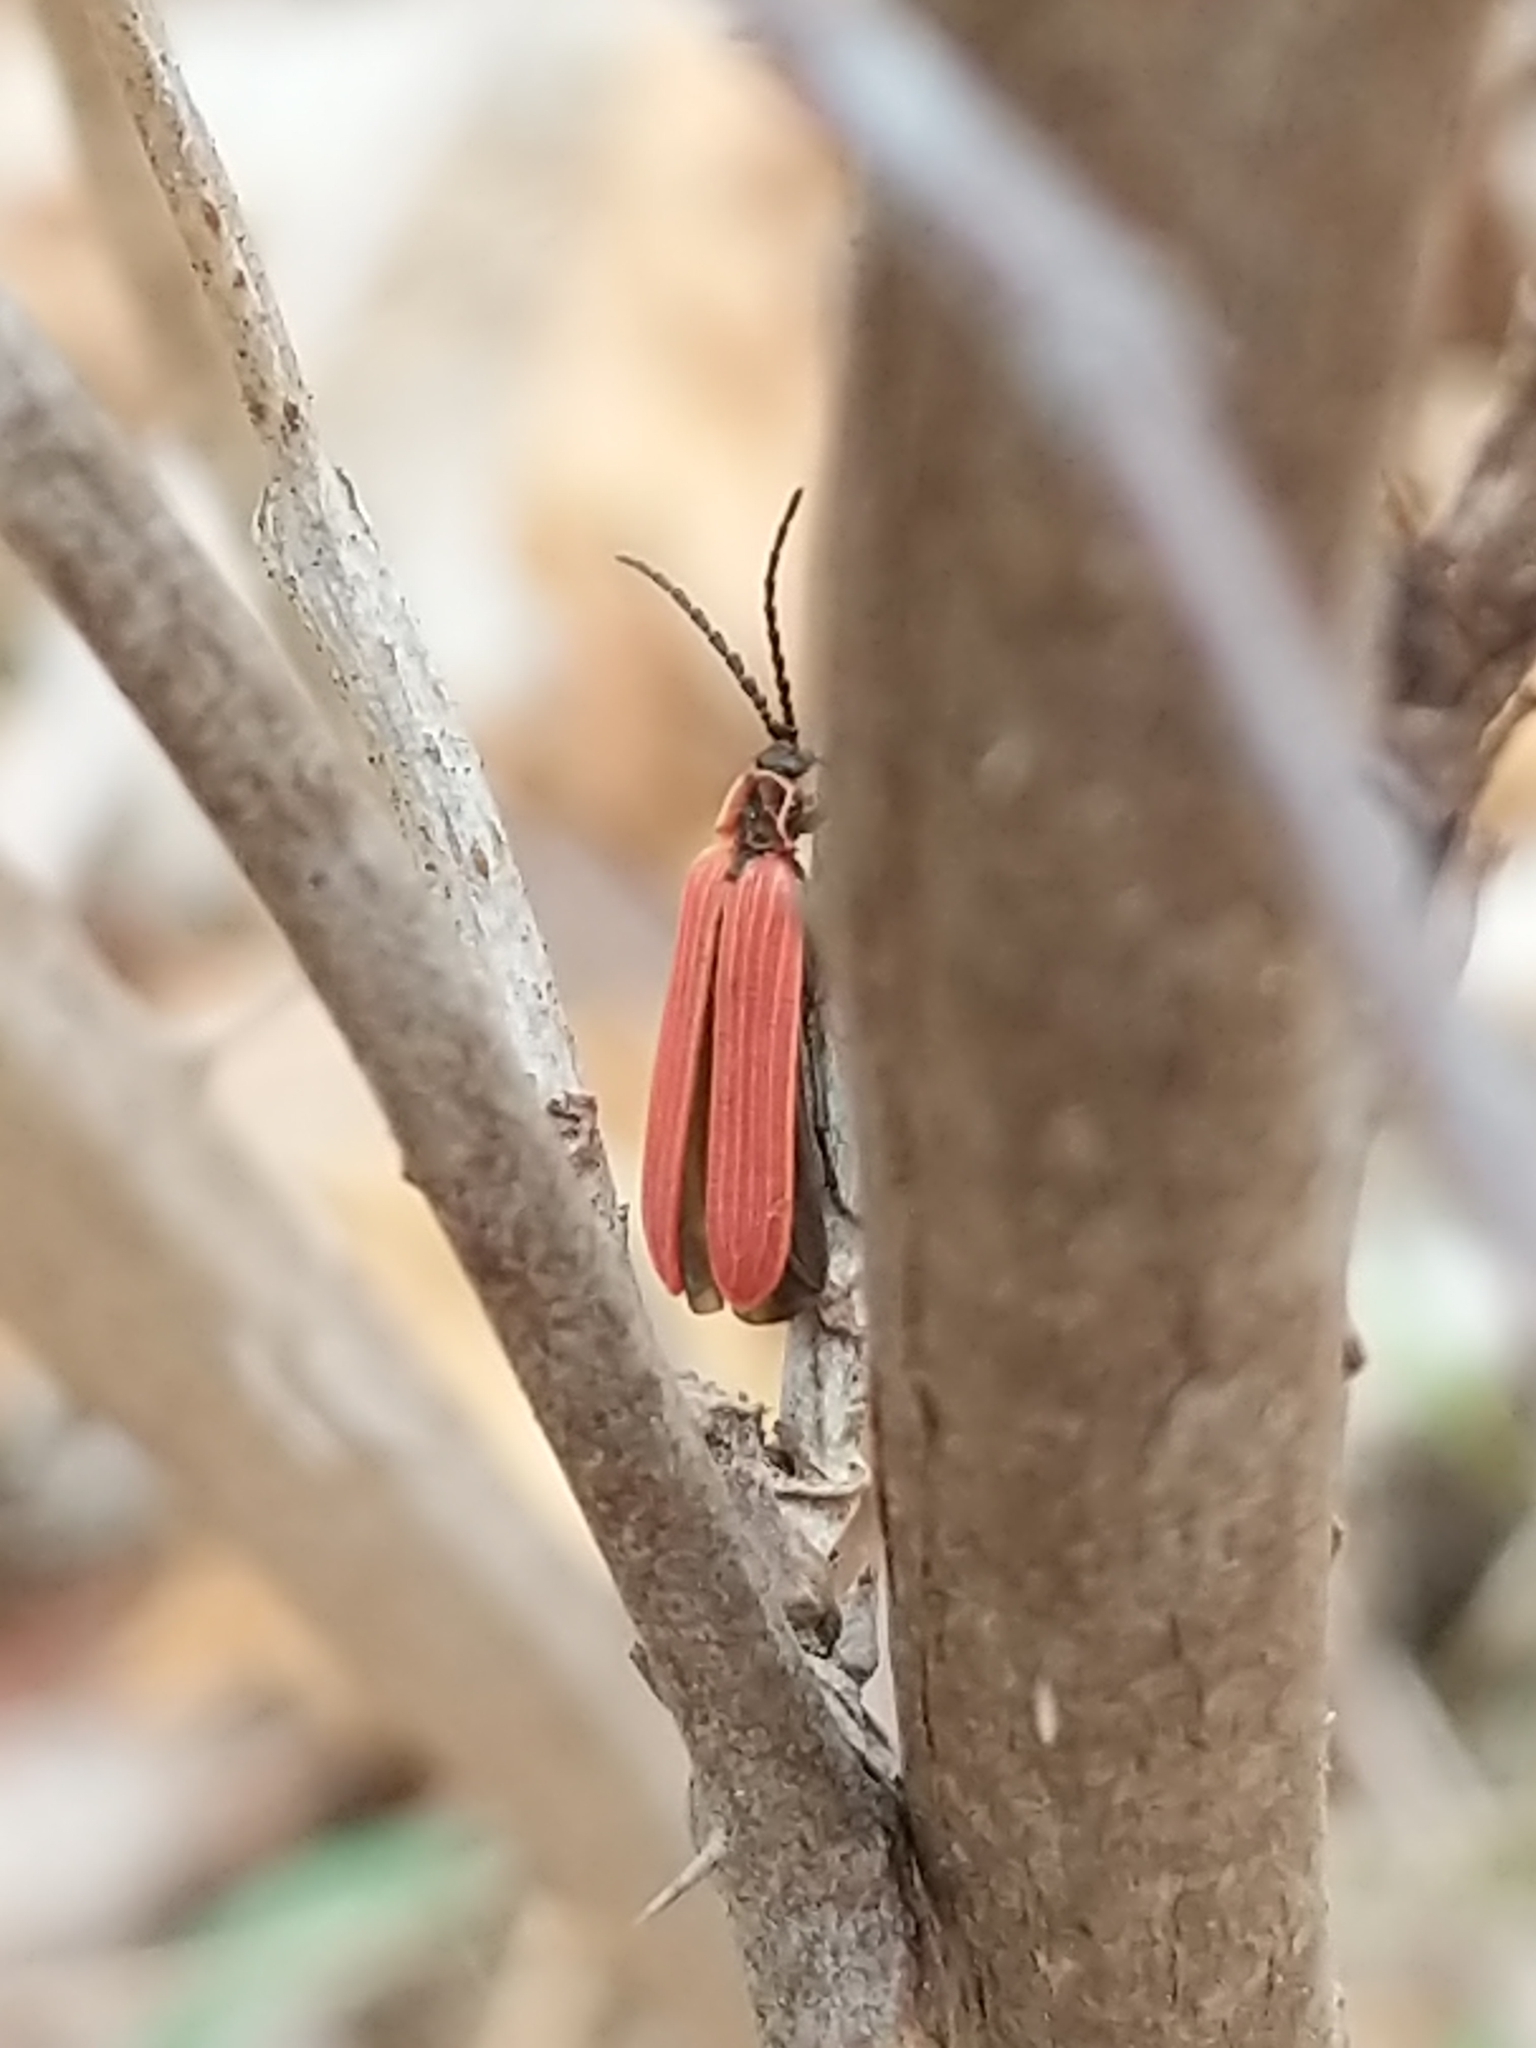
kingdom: Animalia
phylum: Arthropoda
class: Insecta
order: Coleoptera
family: Lycidae
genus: Dictyoptera
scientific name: Dictyoptera aurora
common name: Golden net-winged beetle
